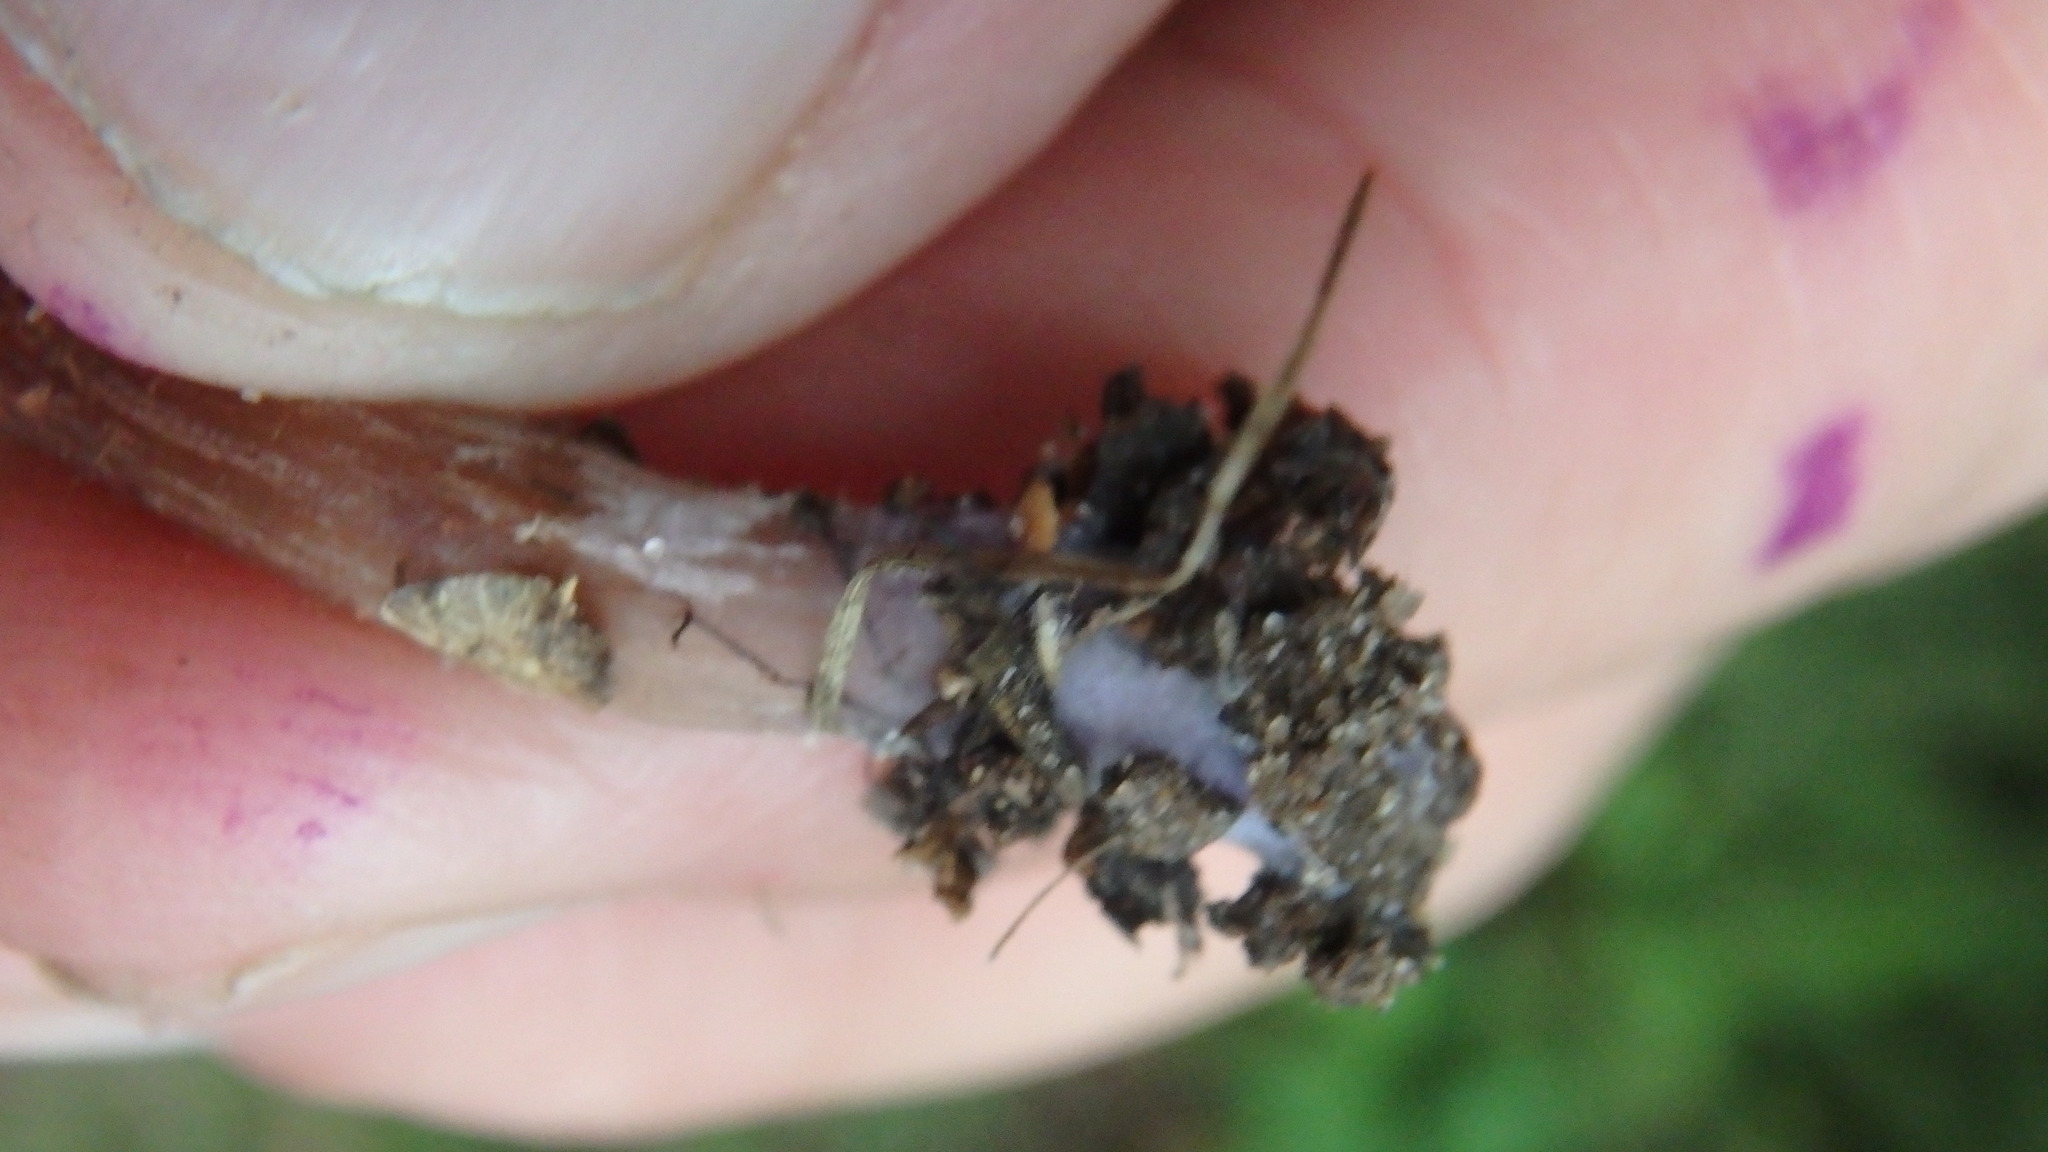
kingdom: Fungi
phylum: Basidiomycota
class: Agaricomycetes
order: Agaricales
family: Hydnangiaceae
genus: Laccaria
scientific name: Laccaria trichodermophora
